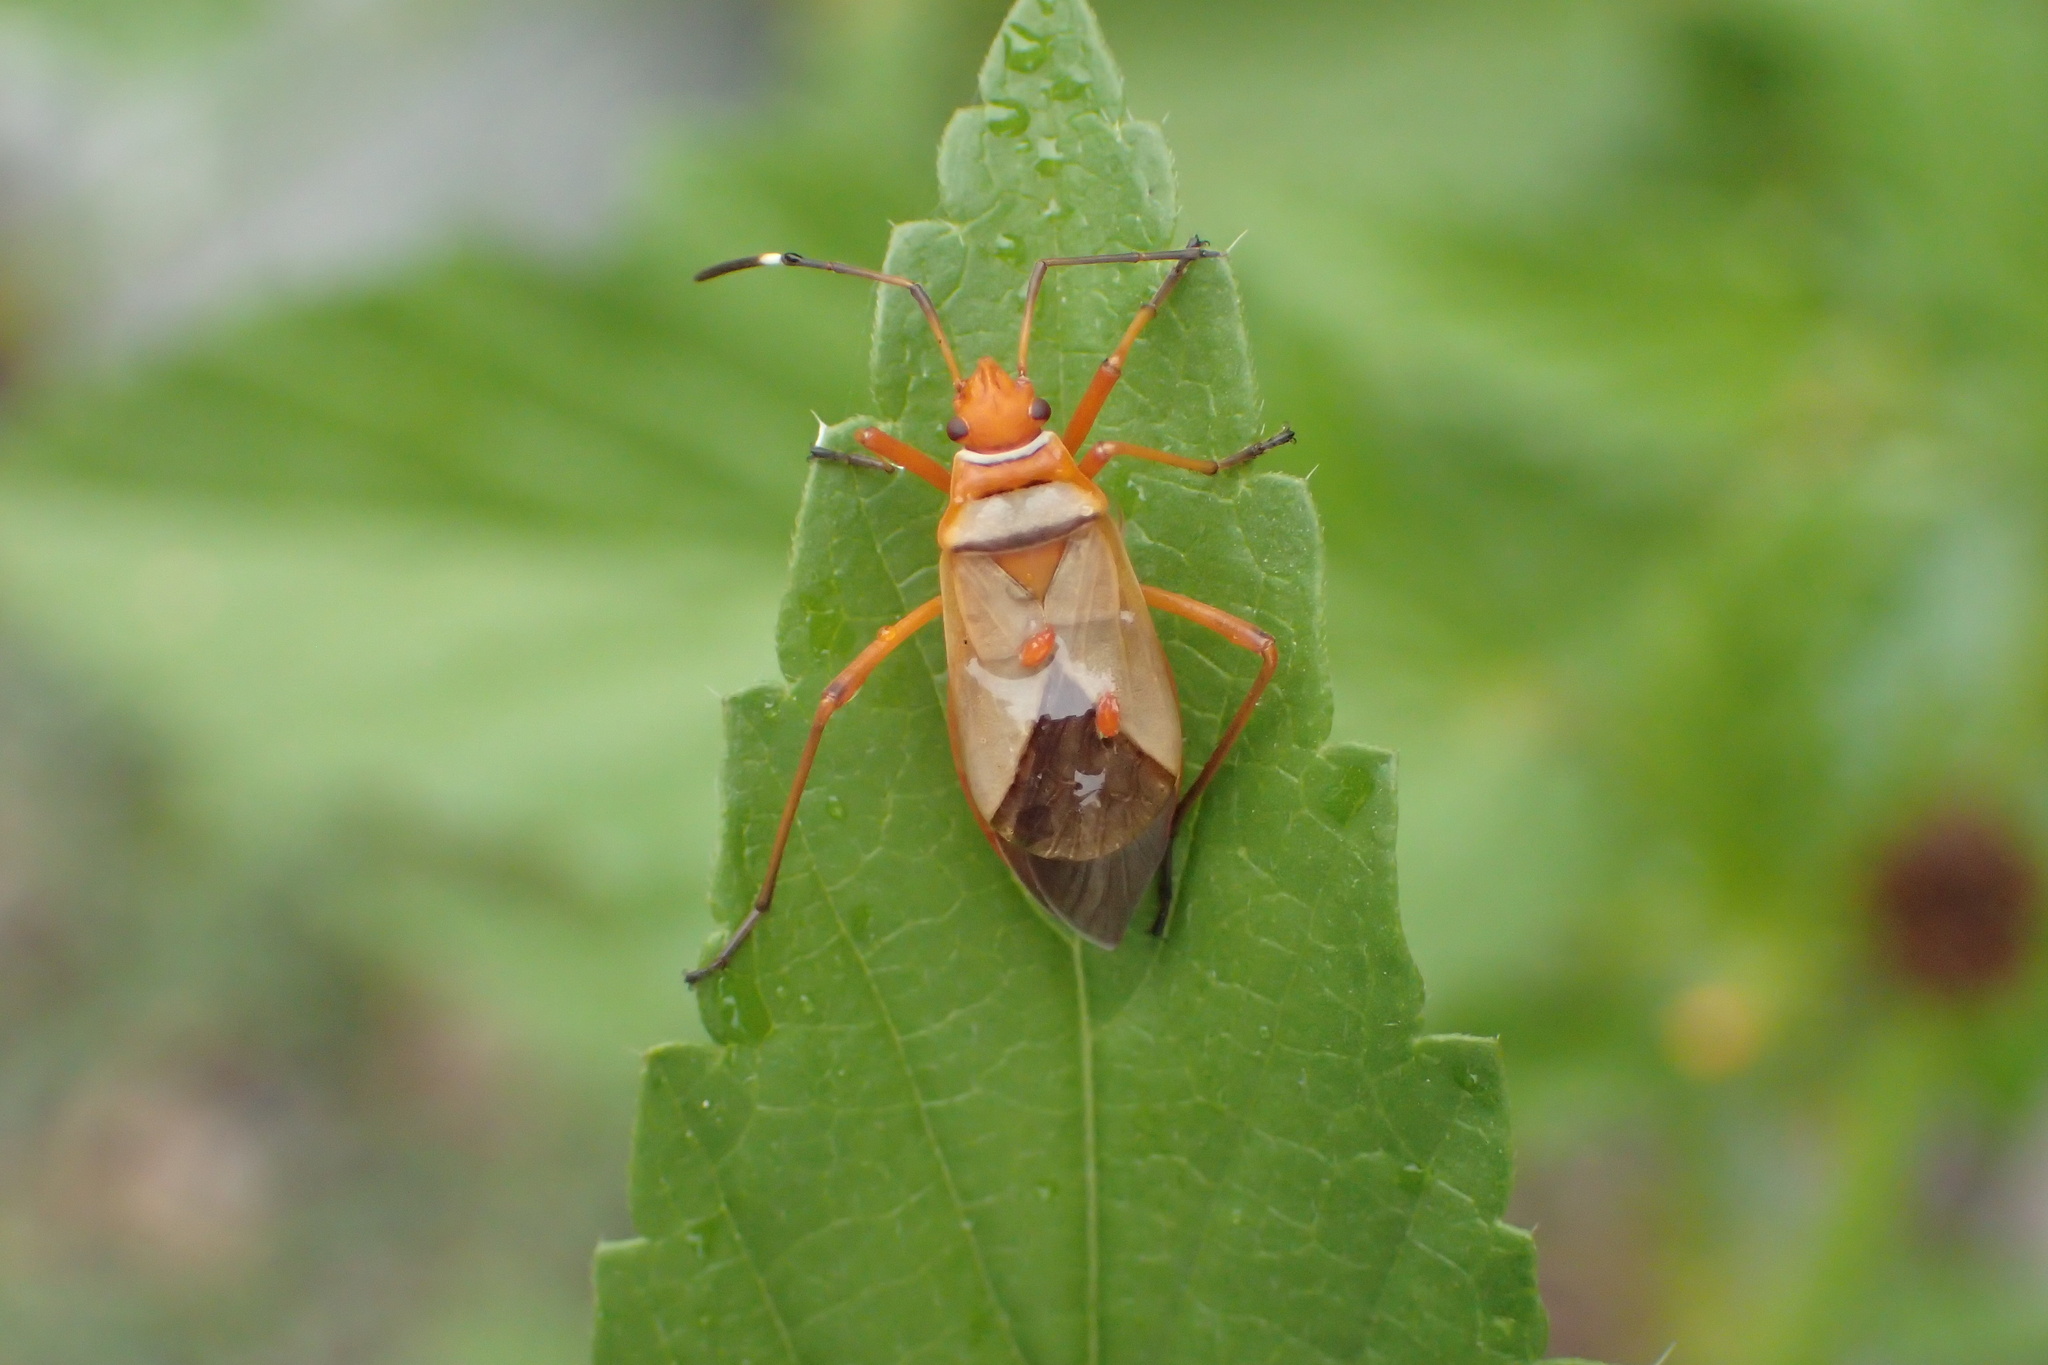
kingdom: Animalia
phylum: Arthropoda
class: Insecta
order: Hemiptera
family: Pyrrhocoridae
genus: Dysdercus
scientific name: Dysdercus
